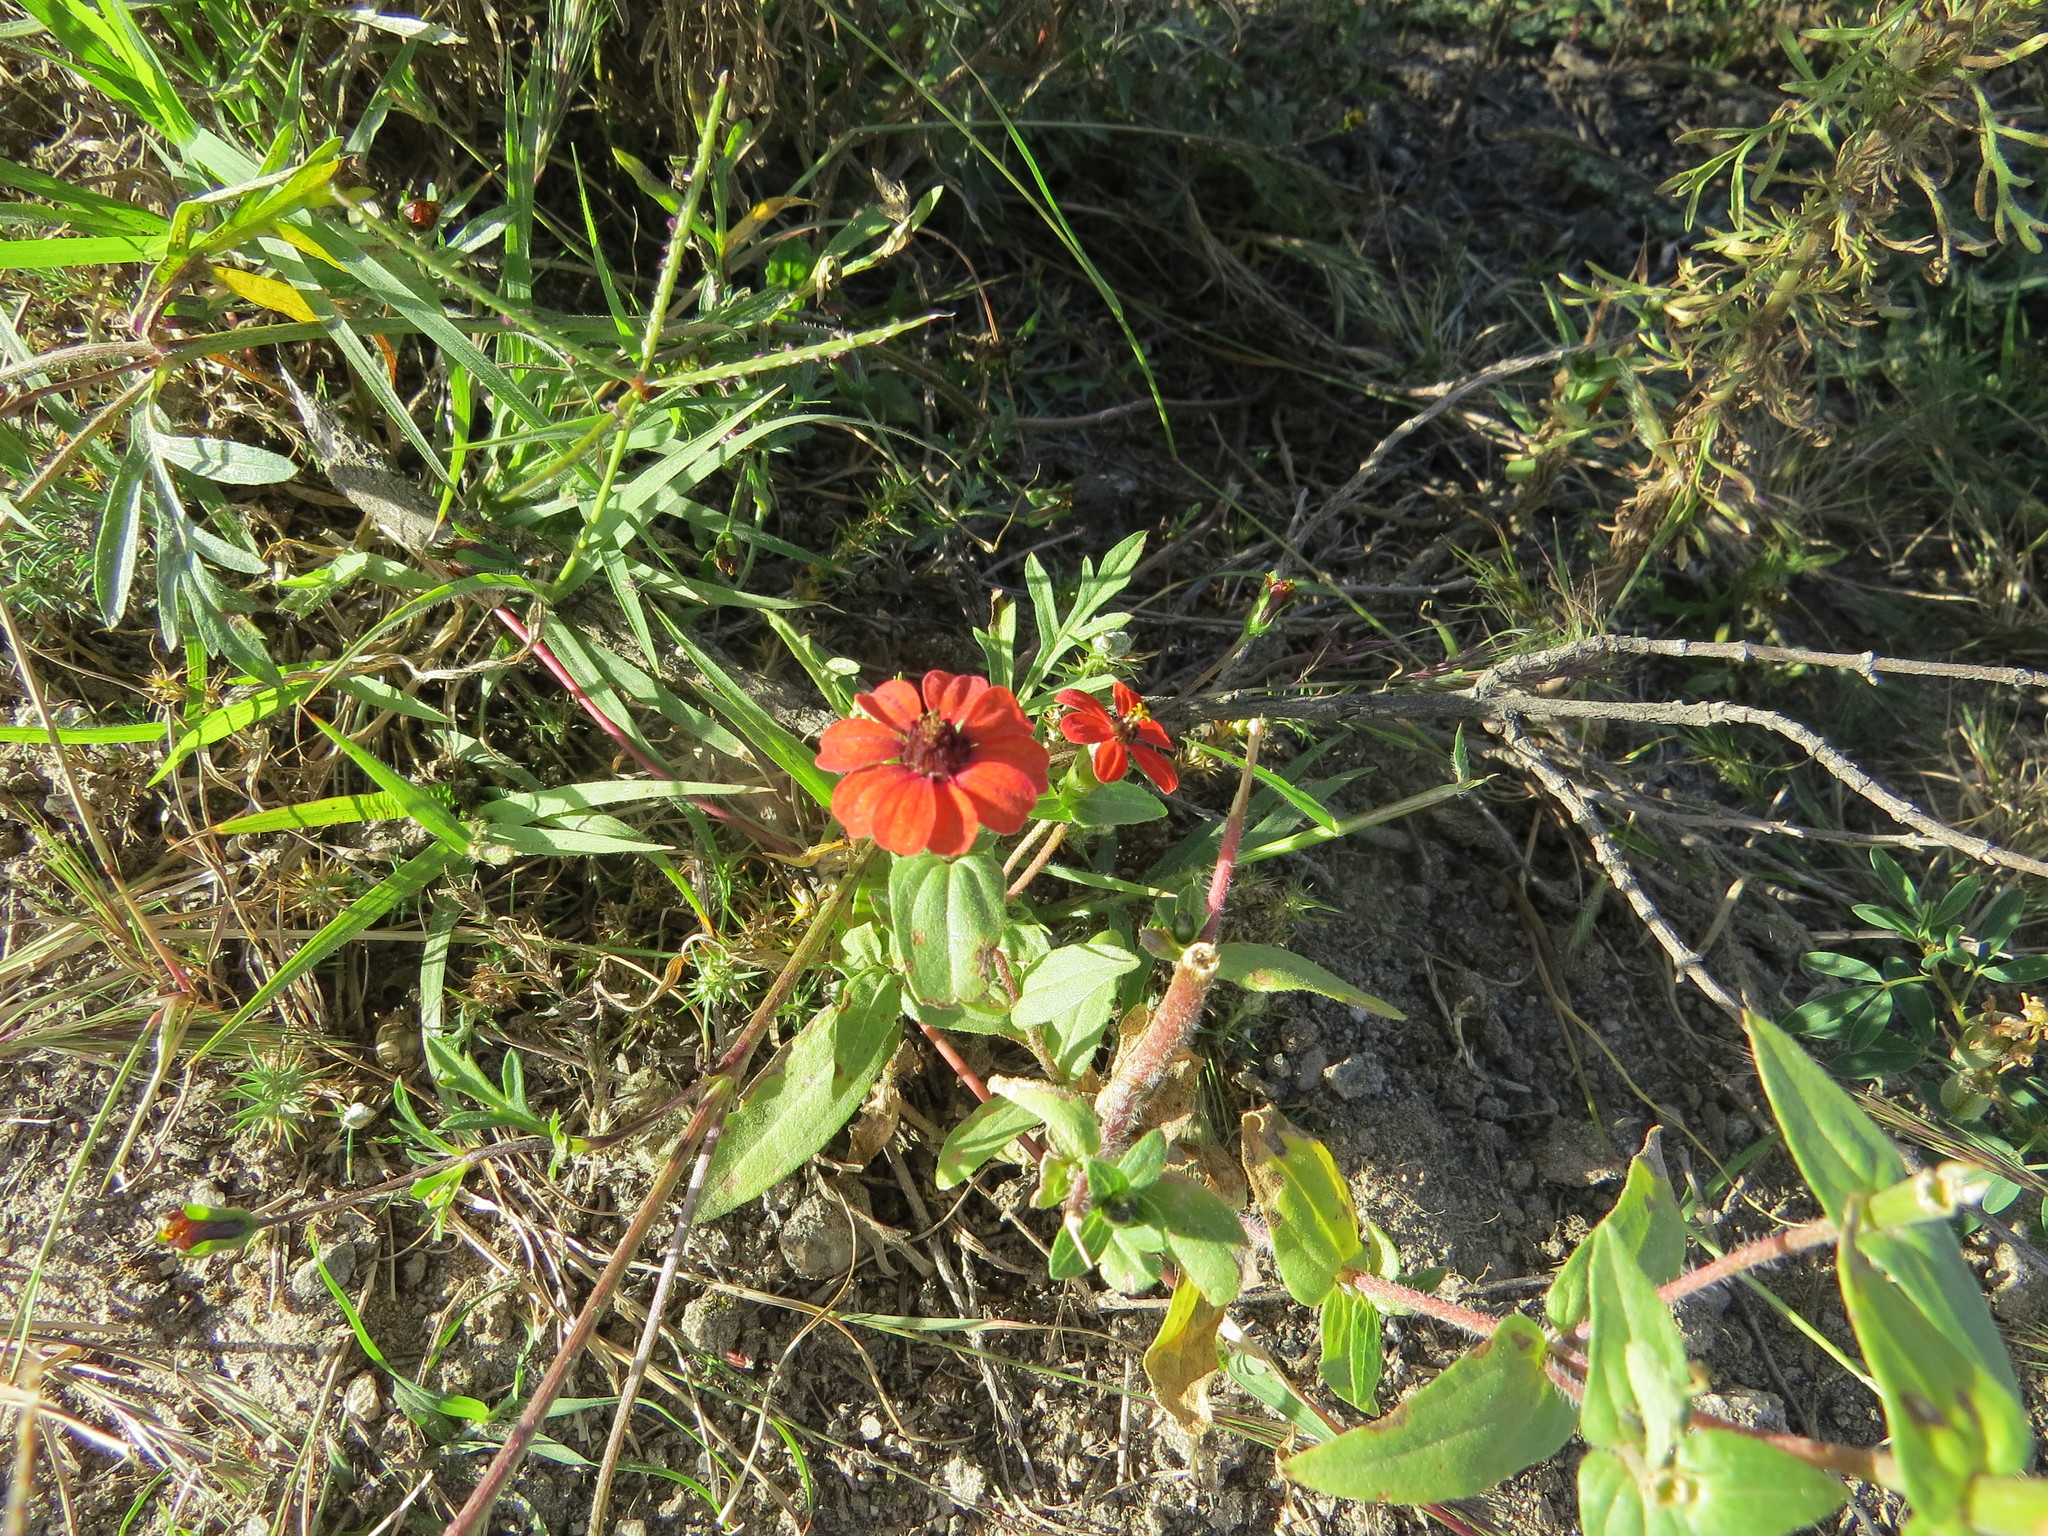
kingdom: Plantae
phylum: Tracheophyta
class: Magnoliopsida
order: Asterales
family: Asteraceae
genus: Zinnia
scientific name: Zinnia peruviana
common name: Peruvian zinnia
